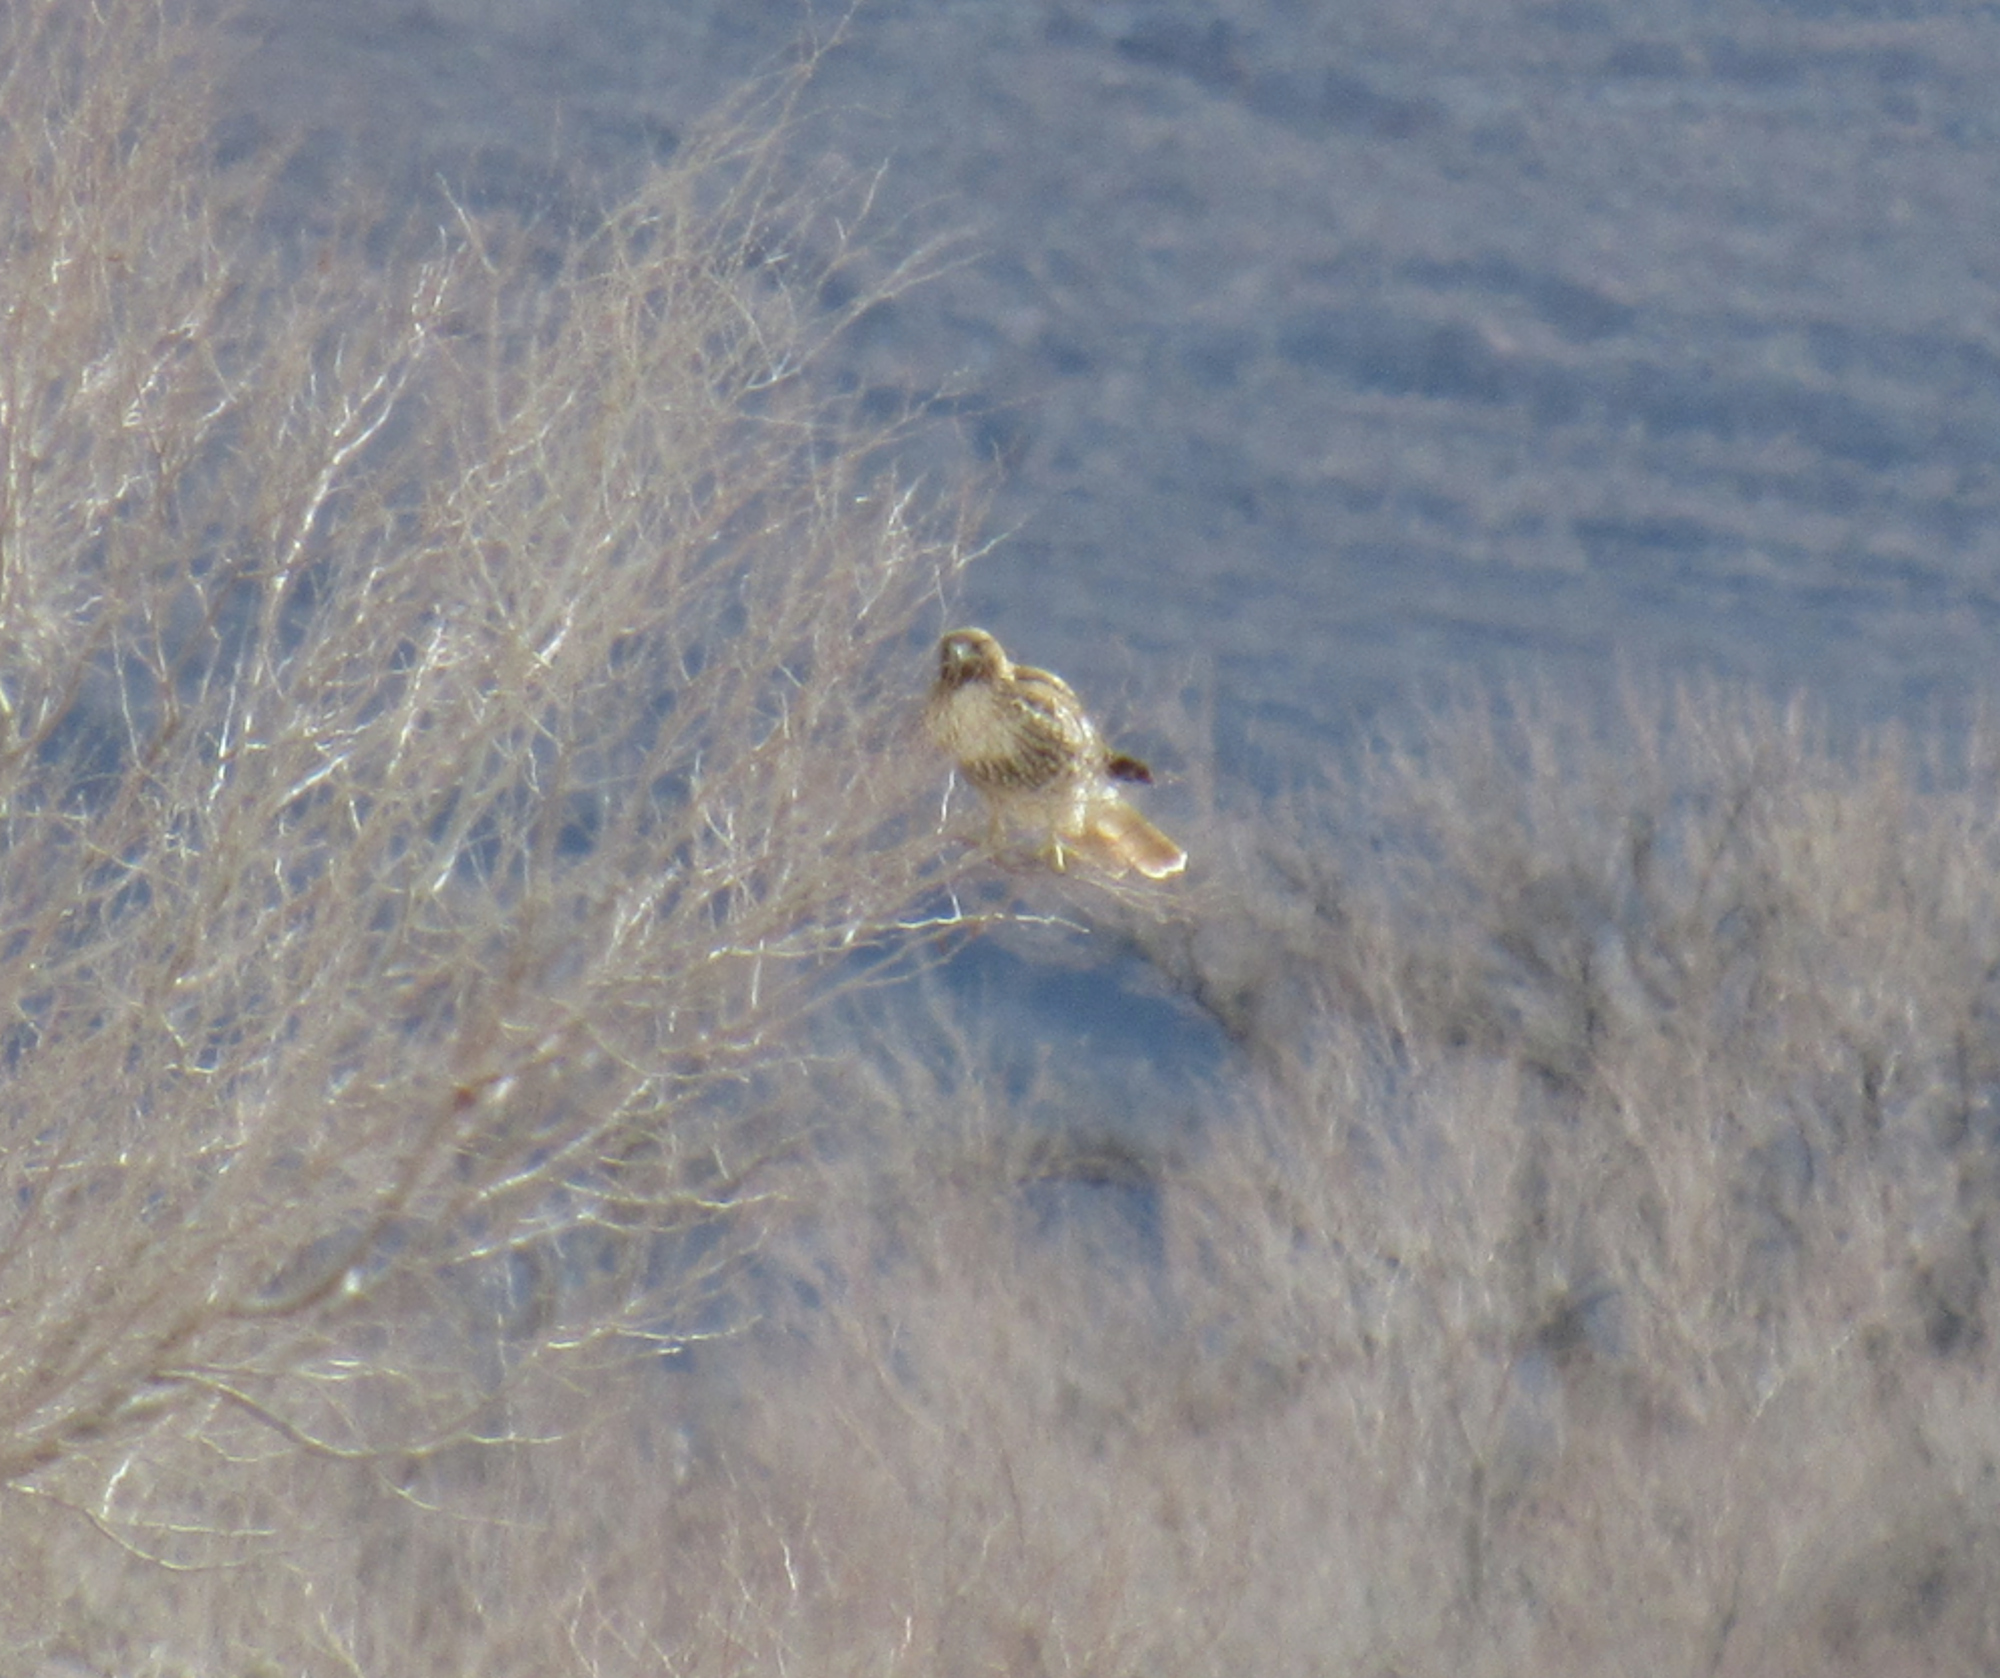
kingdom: Animalia
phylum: Chordata
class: Aves
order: Accipitriformes
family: Accipitridae
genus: Buteo
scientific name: Buteo jamaicensis
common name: Red-tailed hawk
